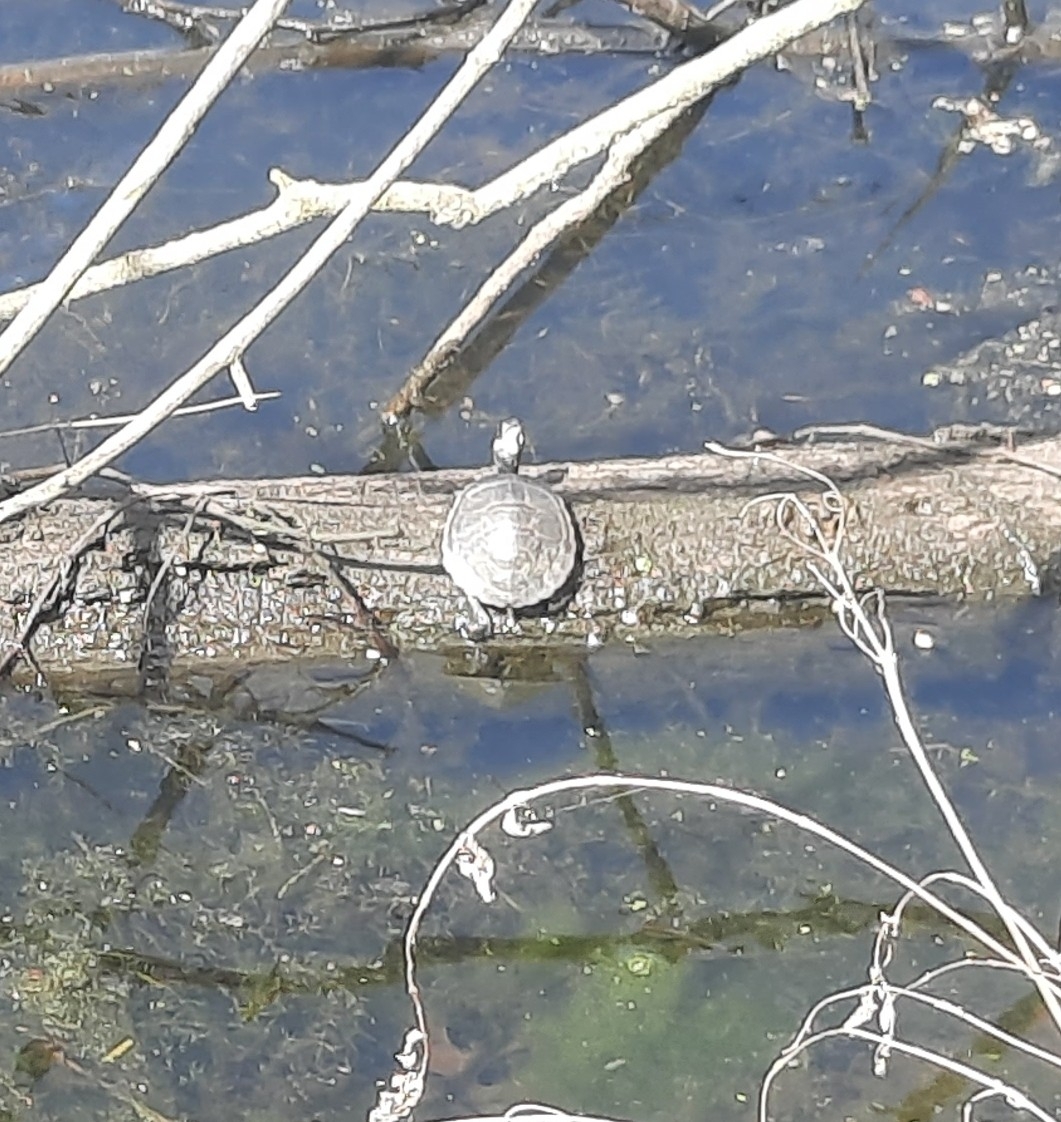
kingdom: Animalia
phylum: Chordata
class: Testudines
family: Emydidae
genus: Chrysemys
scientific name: Chrysemys picta
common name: Painted turtle
